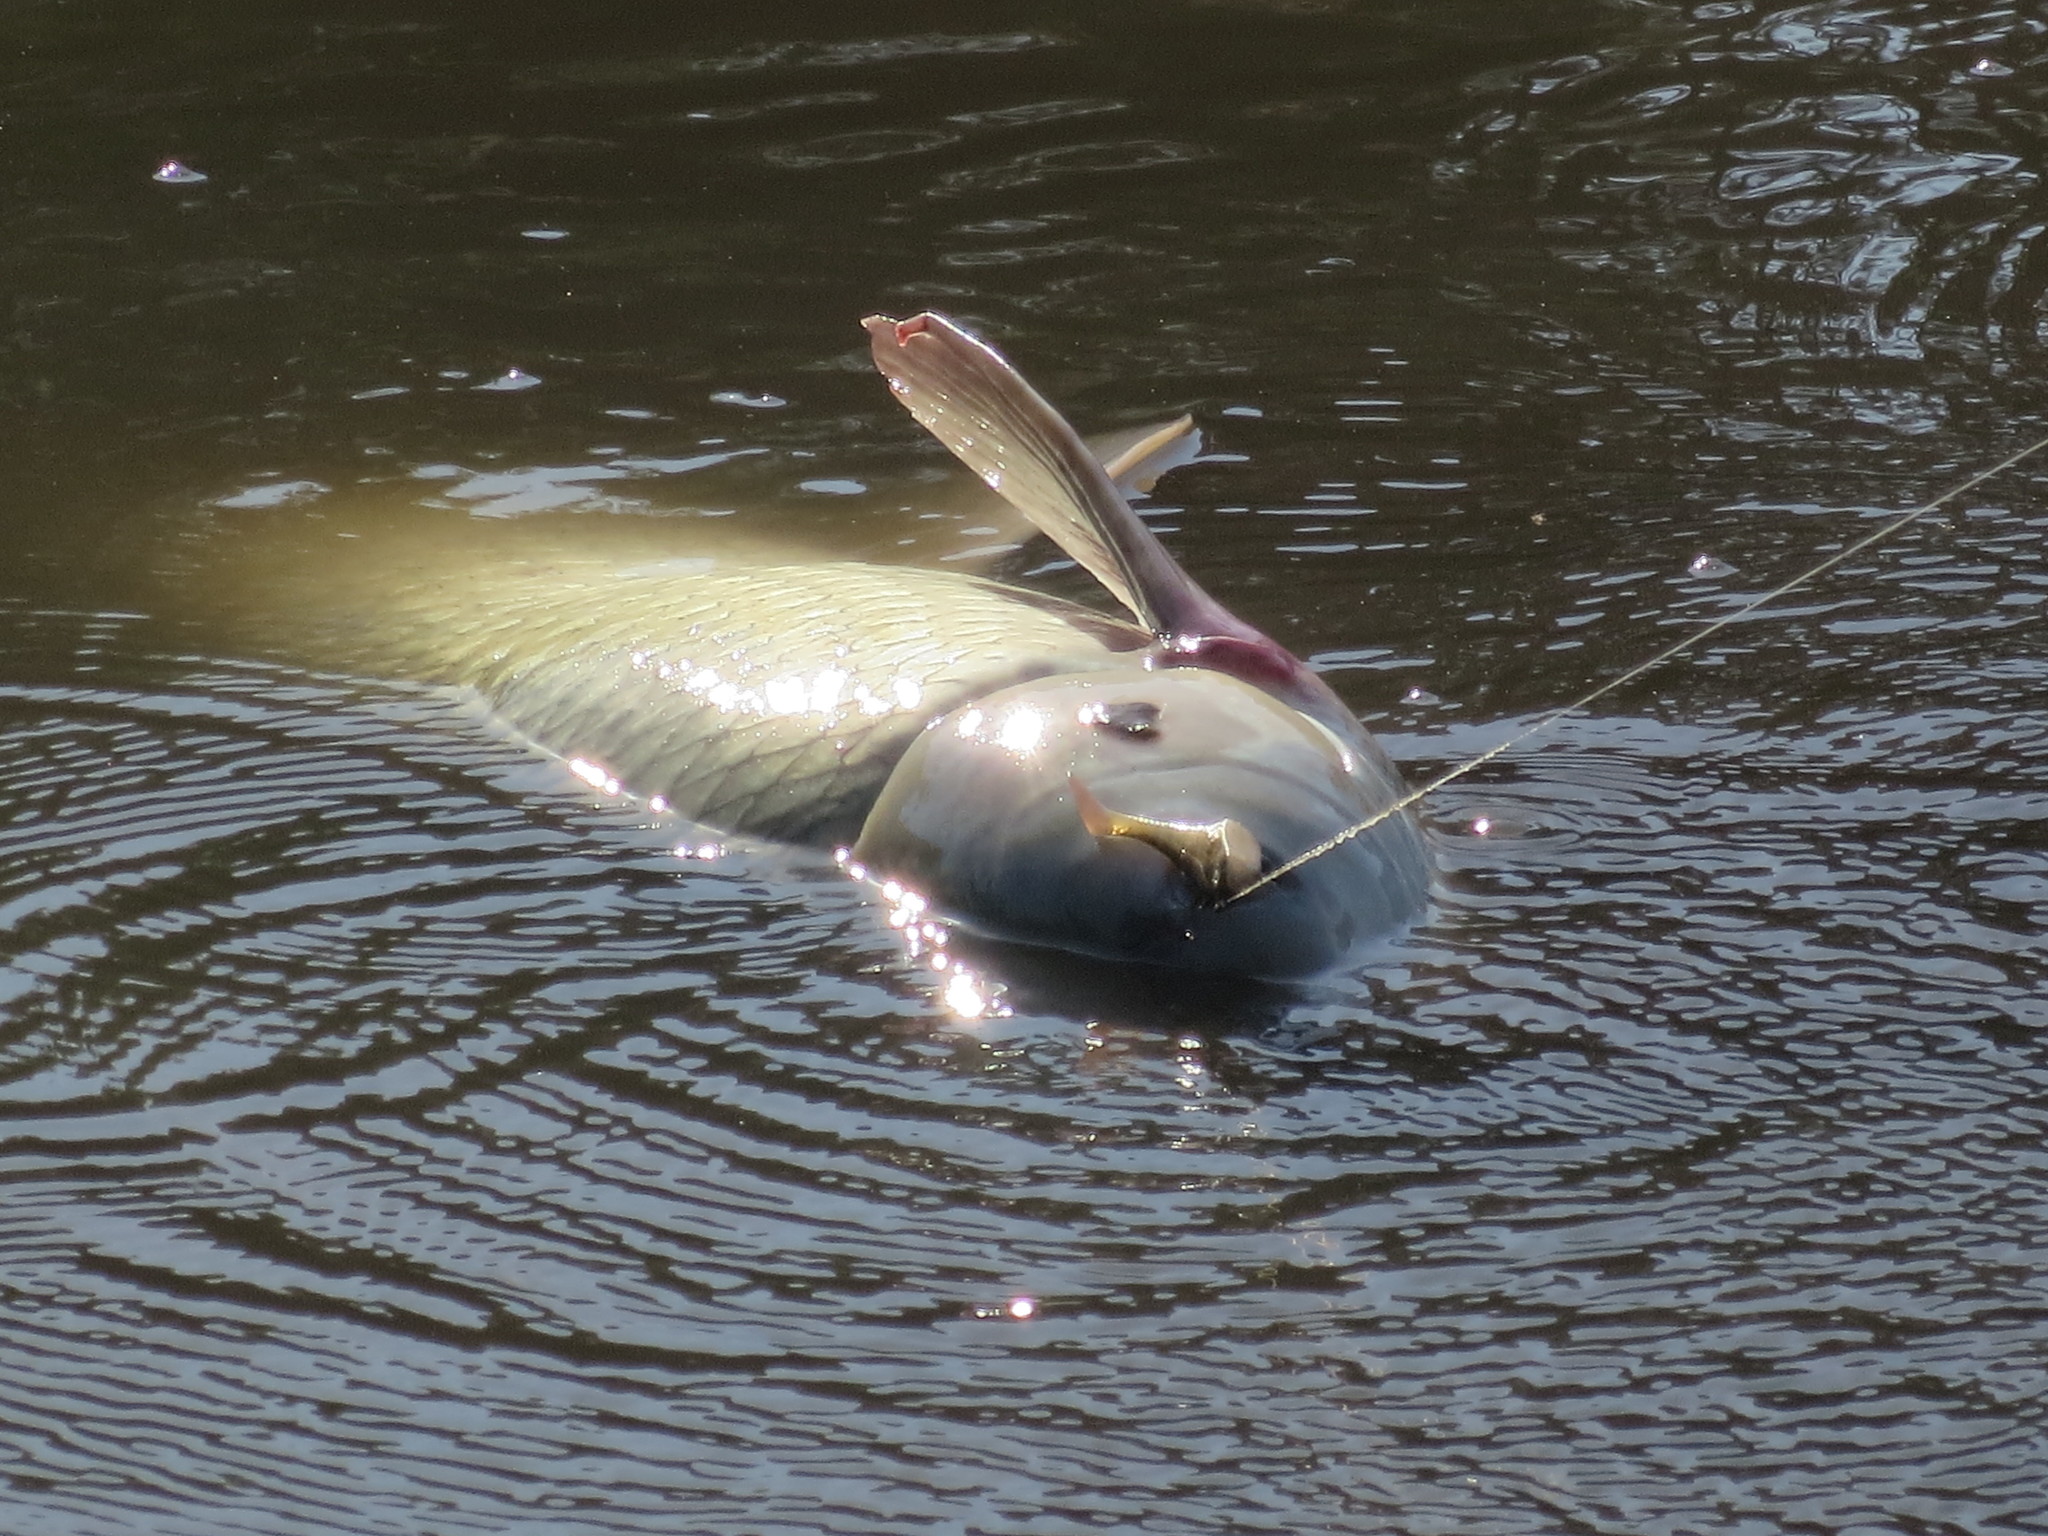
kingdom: Animalia
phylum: Chordata
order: Cypriniformes
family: Cyprinidae
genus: Ctenopharyngodon
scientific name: Ctenopharyngodon idella
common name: Grass carp
